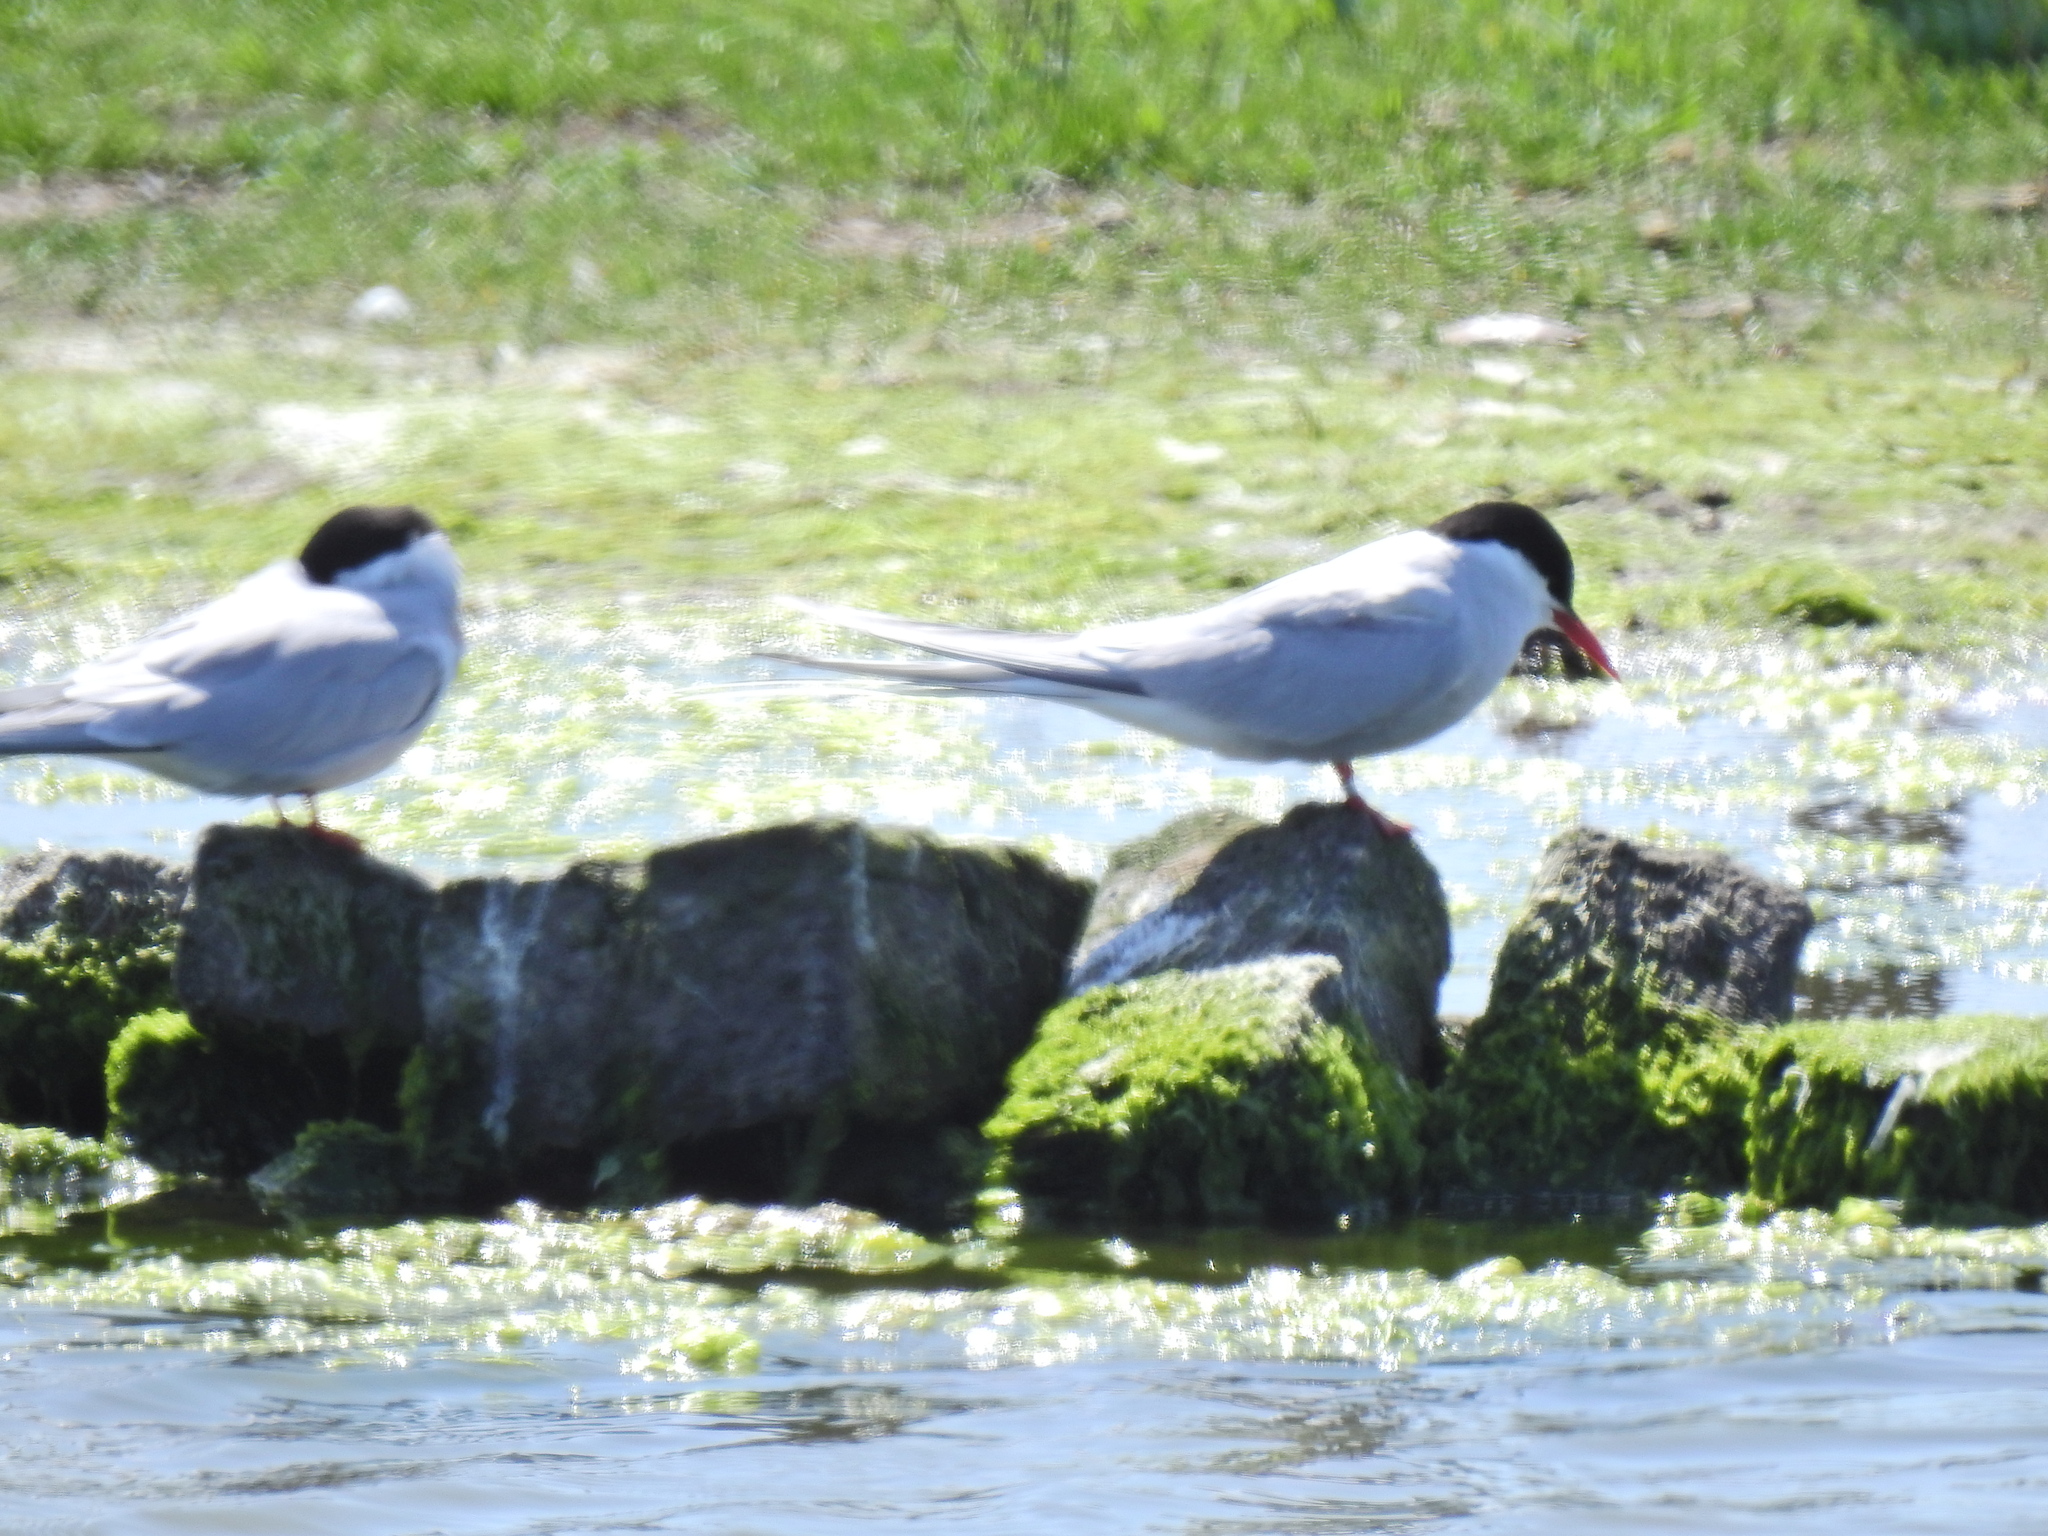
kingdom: Animalia
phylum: Chordata
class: Aves
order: Charadriiformes
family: Laridae
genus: Sterna
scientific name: Sterna paradisaea
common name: Arctic tern
